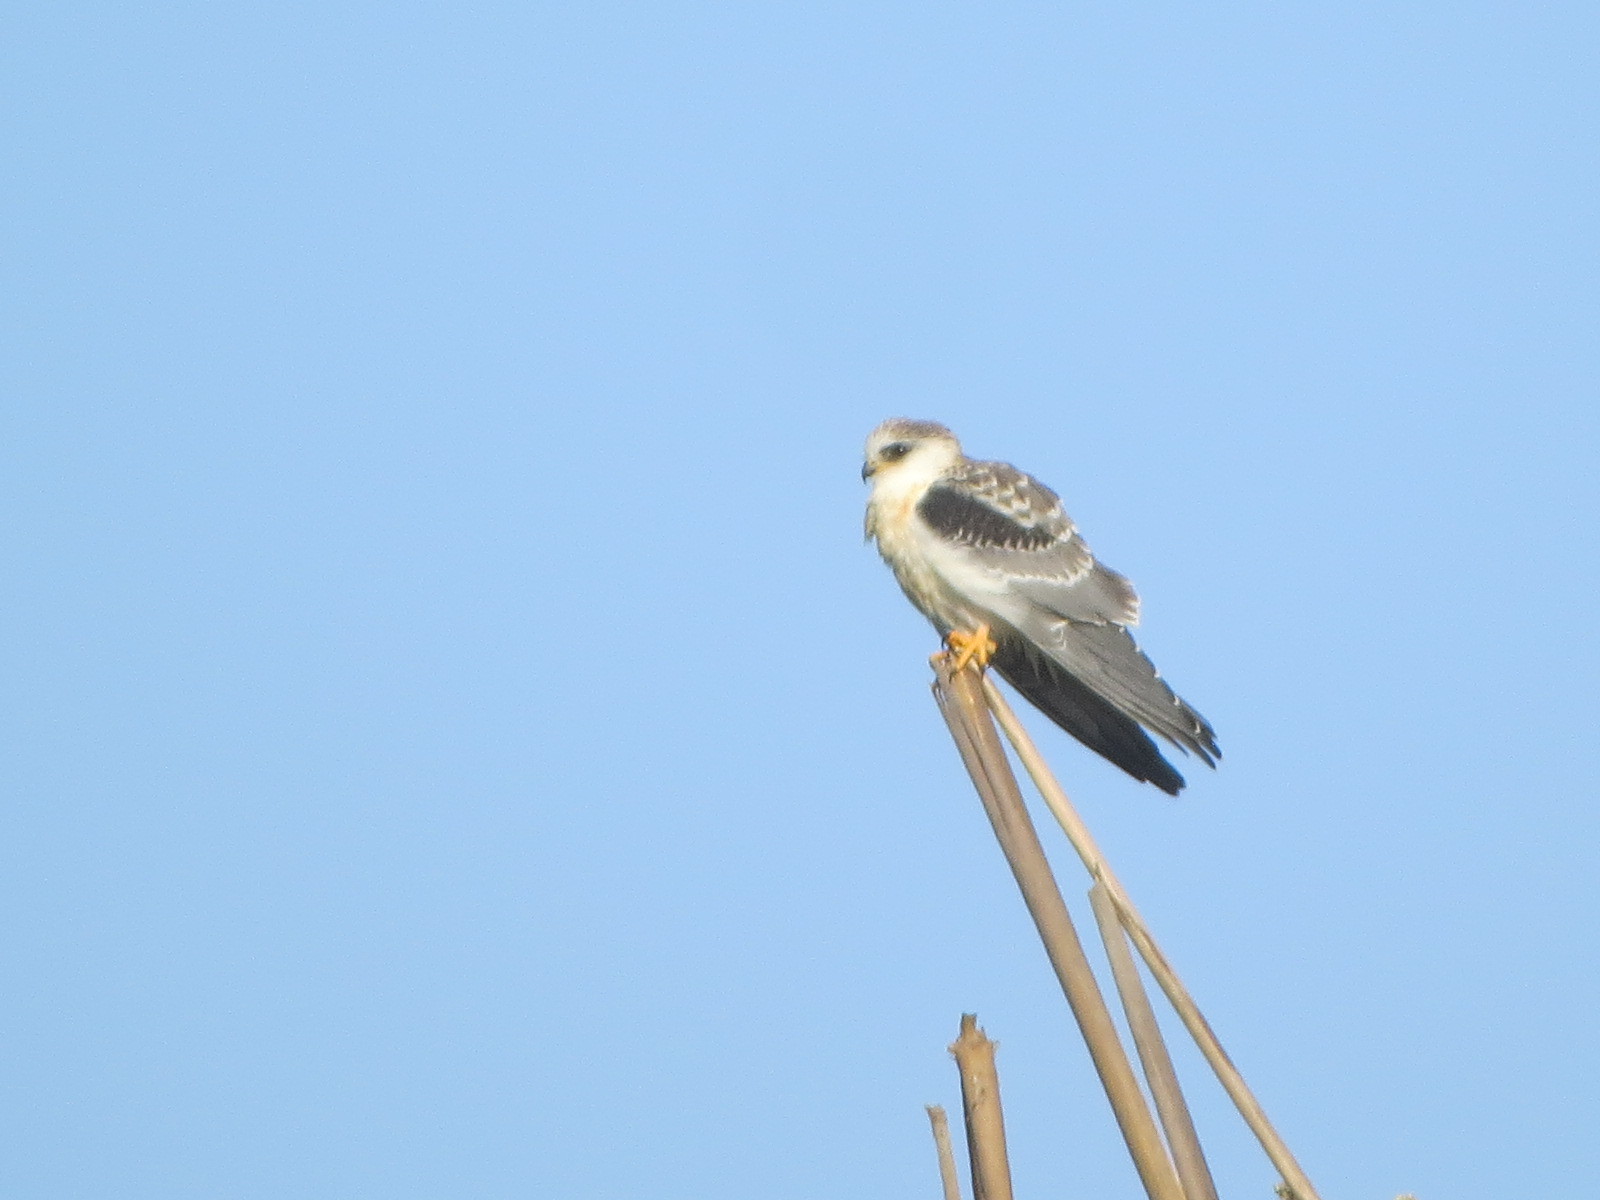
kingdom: Animalia
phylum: Chordata
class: Aves
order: Accipitriformes
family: Accipitridae
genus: Elanus
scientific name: Elanus leucurus
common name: White-tailed kite
